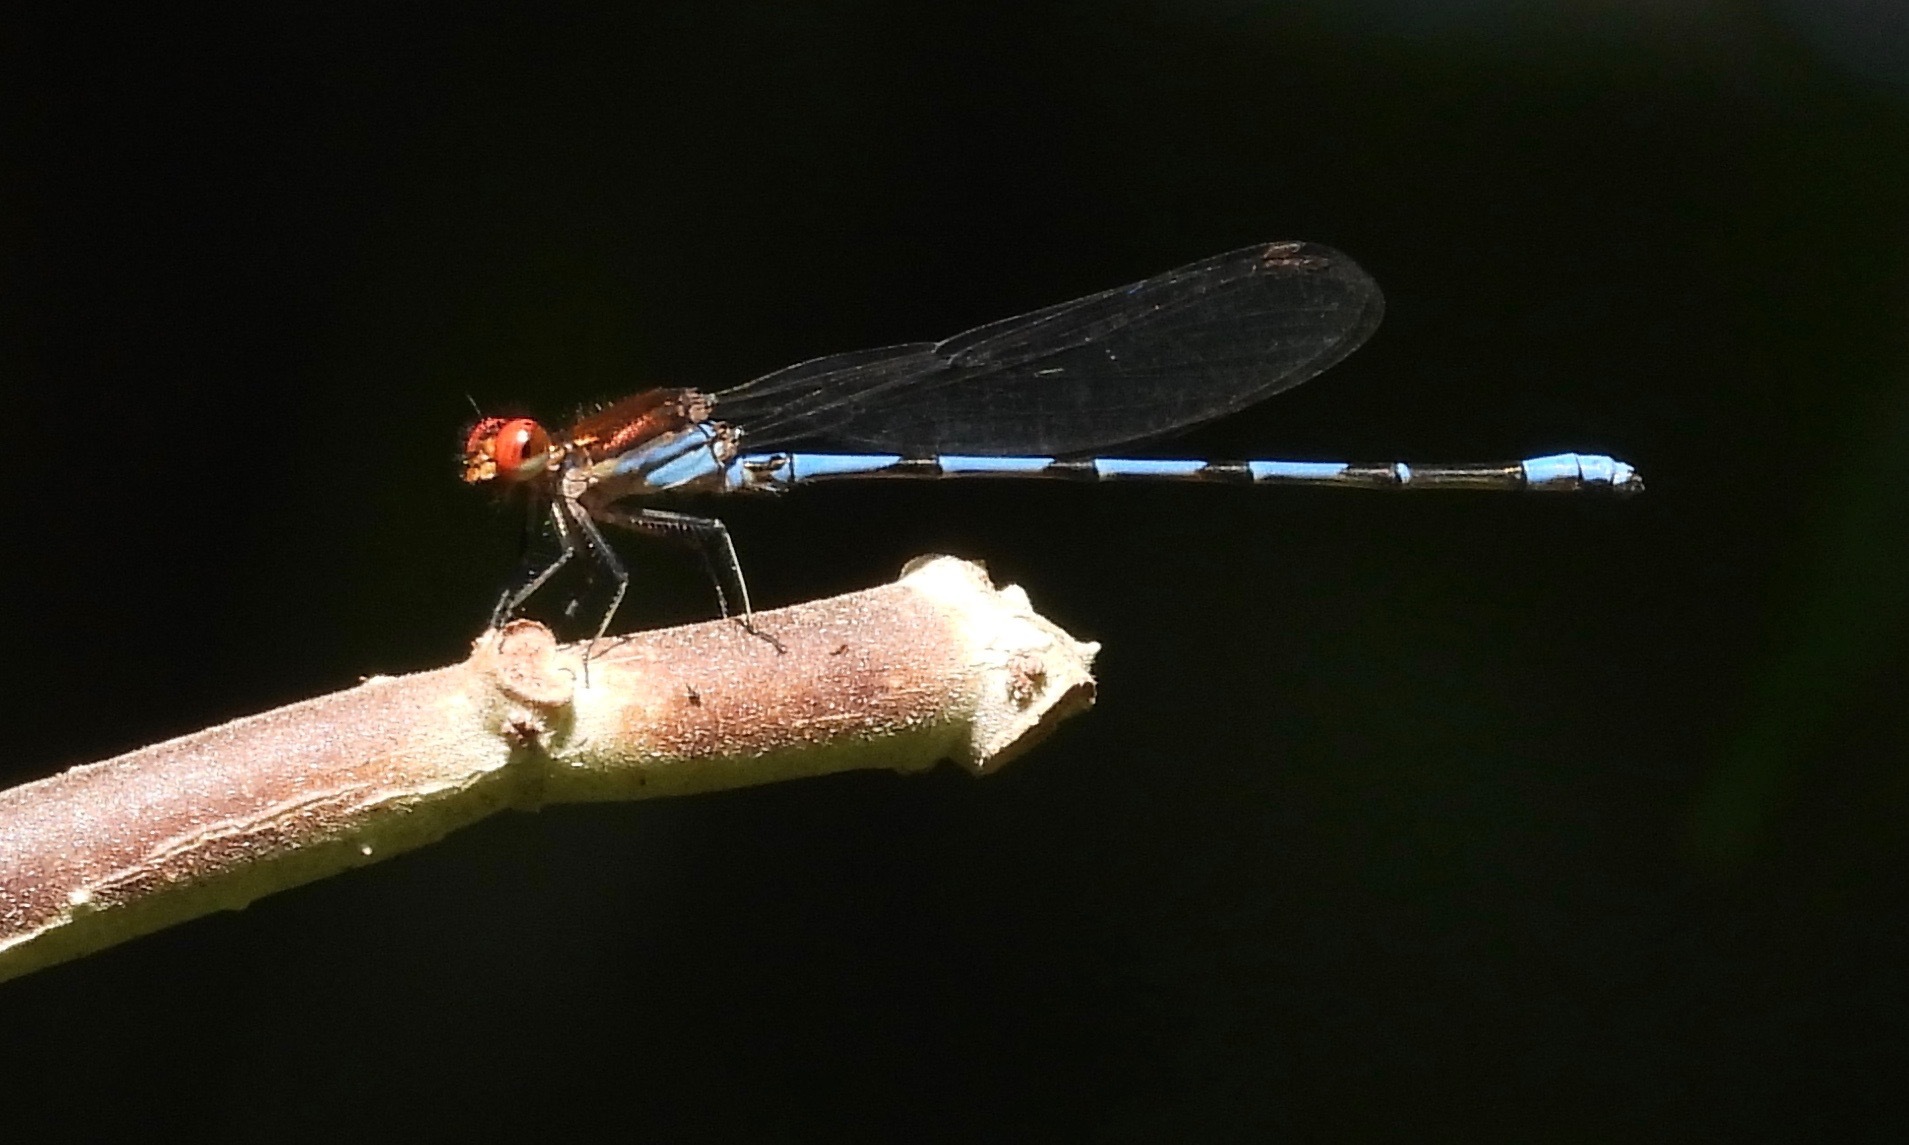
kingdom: Animalia
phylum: Arthropoda
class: Insecta
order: Odonata
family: Coenagrionidae
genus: Argia
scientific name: Argia oenea
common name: Fiery-eyed dancer
